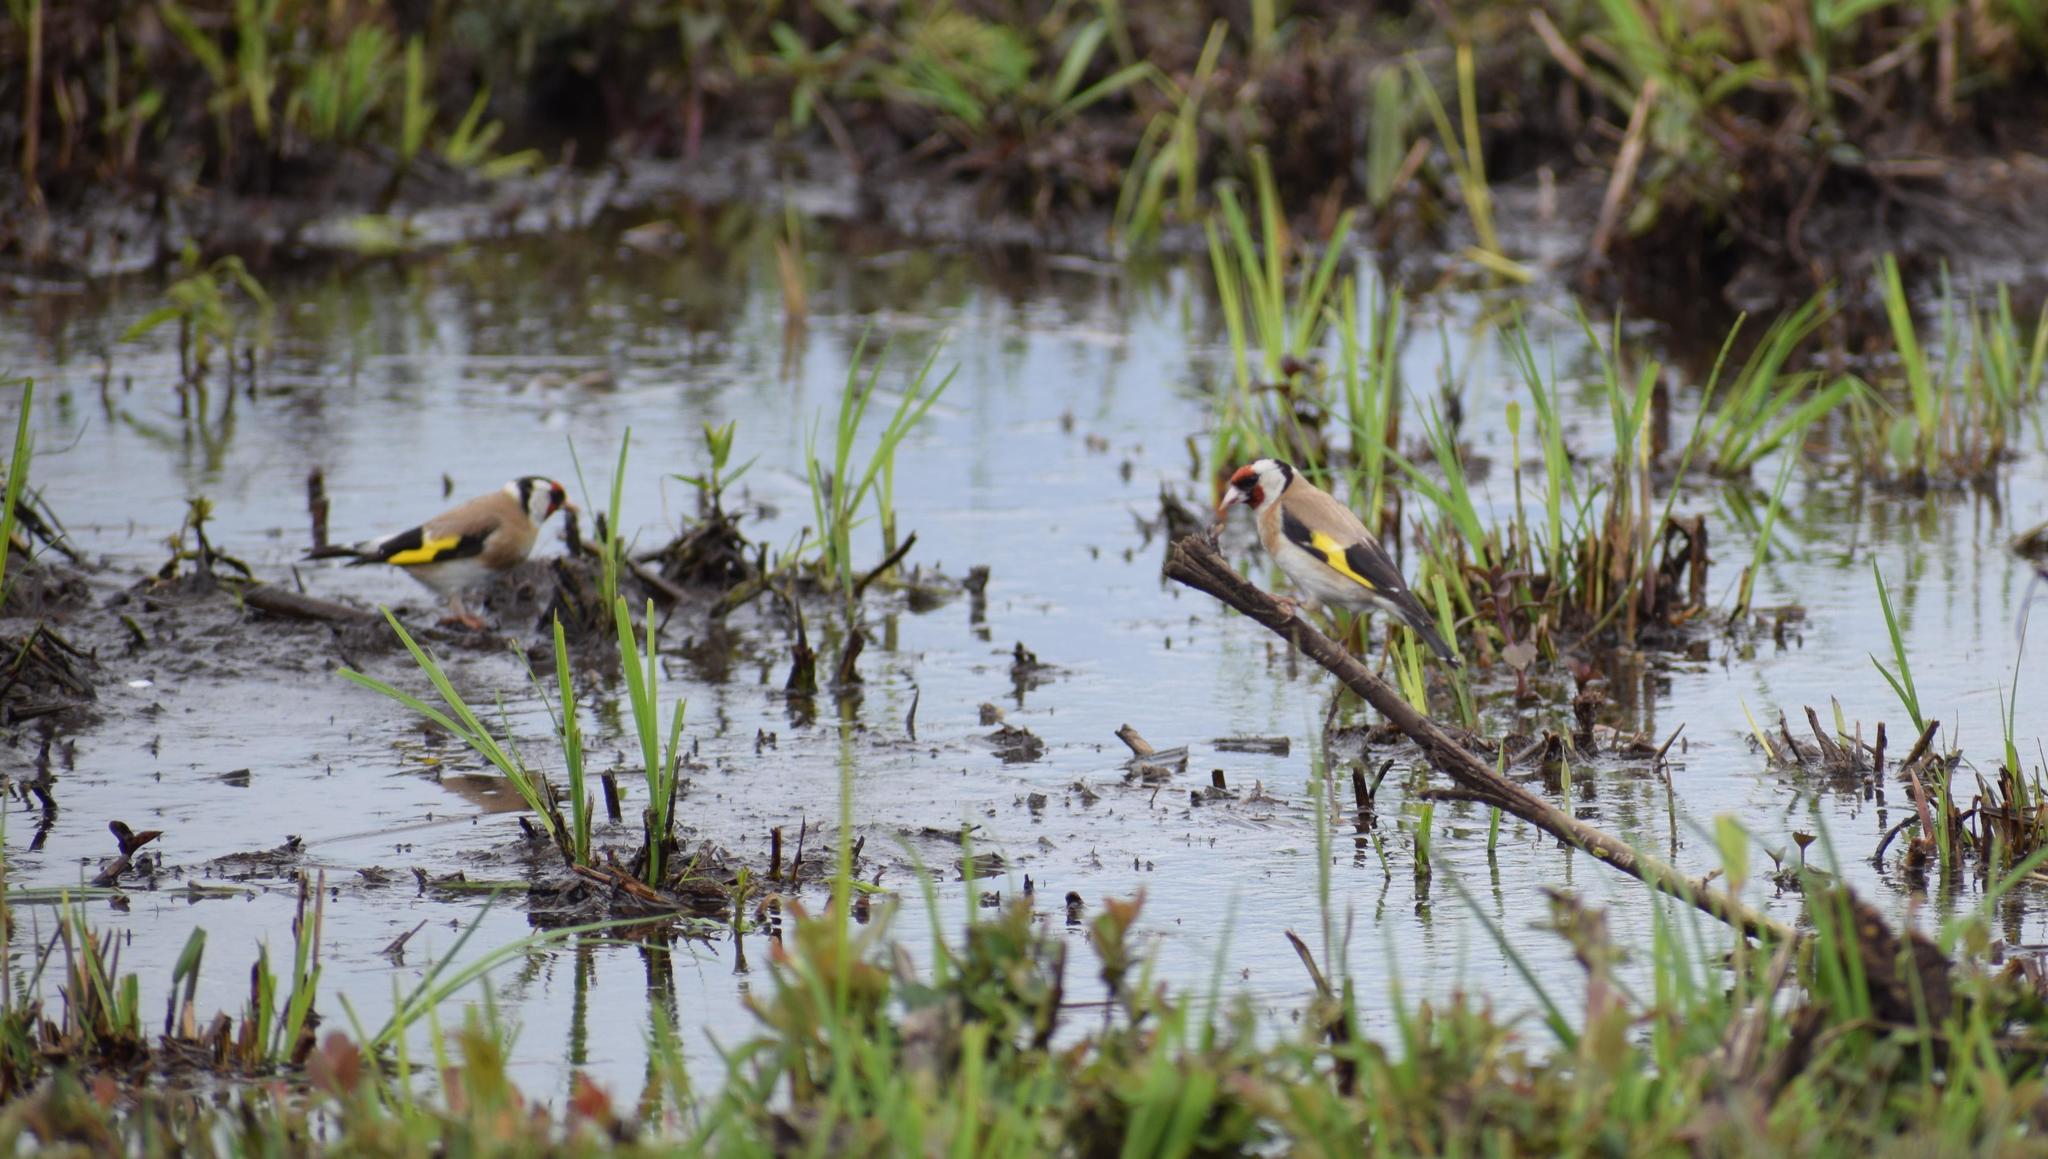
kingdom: Animalia
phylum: Chordata
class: Aves
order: Passeriformes
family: Fringillidae
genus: Carduelis
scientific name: Carduelis carduelis
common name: European goldfinch
